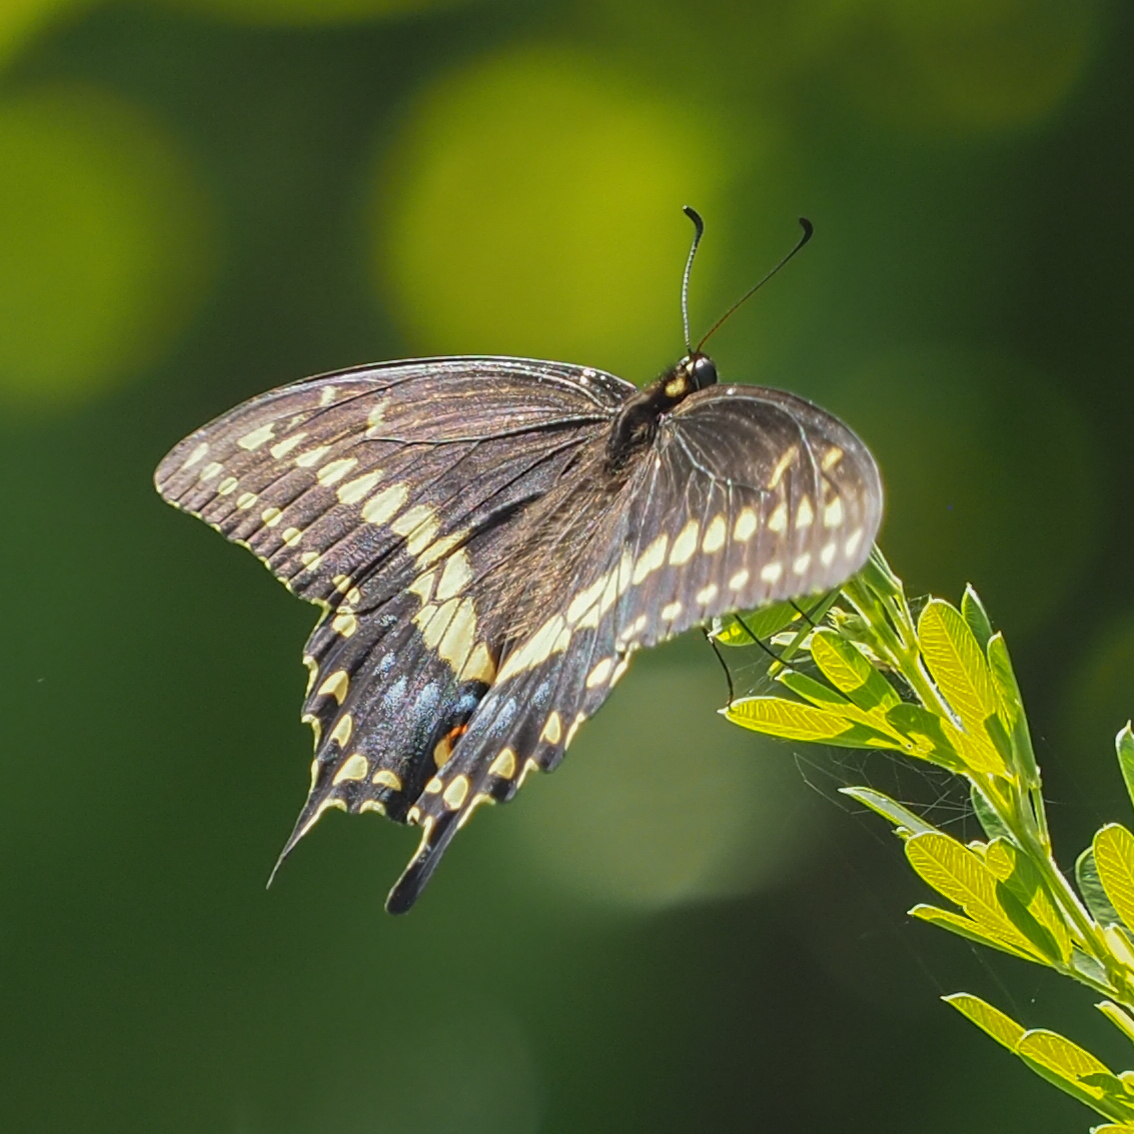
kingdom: Animalia
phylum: Arthropoda
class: Insecta
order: Lepidoptera
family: Papilionidae
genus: Papilio
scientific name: Papilio polyxenes
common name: Black swallowtail
